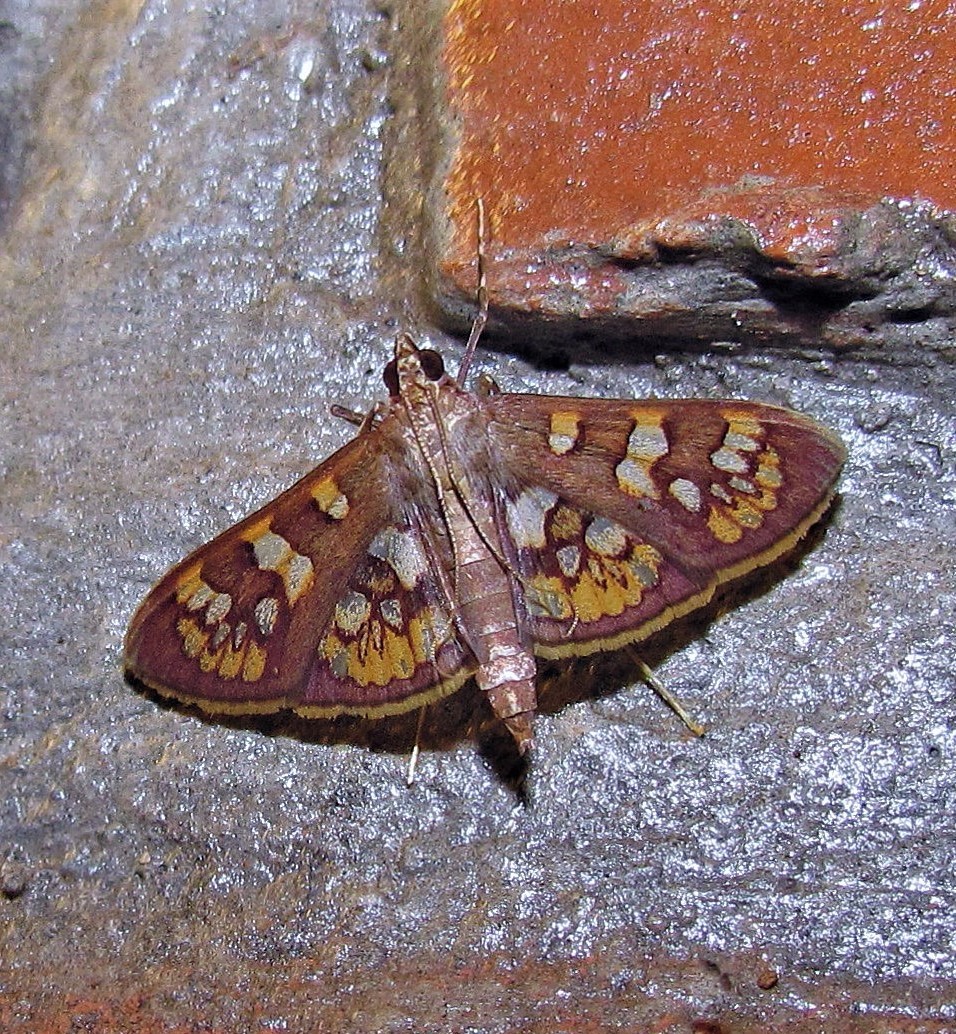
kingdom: Animalia
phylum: Arthropoda
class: Insecta
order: Lepidoptera
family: Crambidae
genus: Trithyris
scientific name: Trithyris Prenesta fenestrinalis
